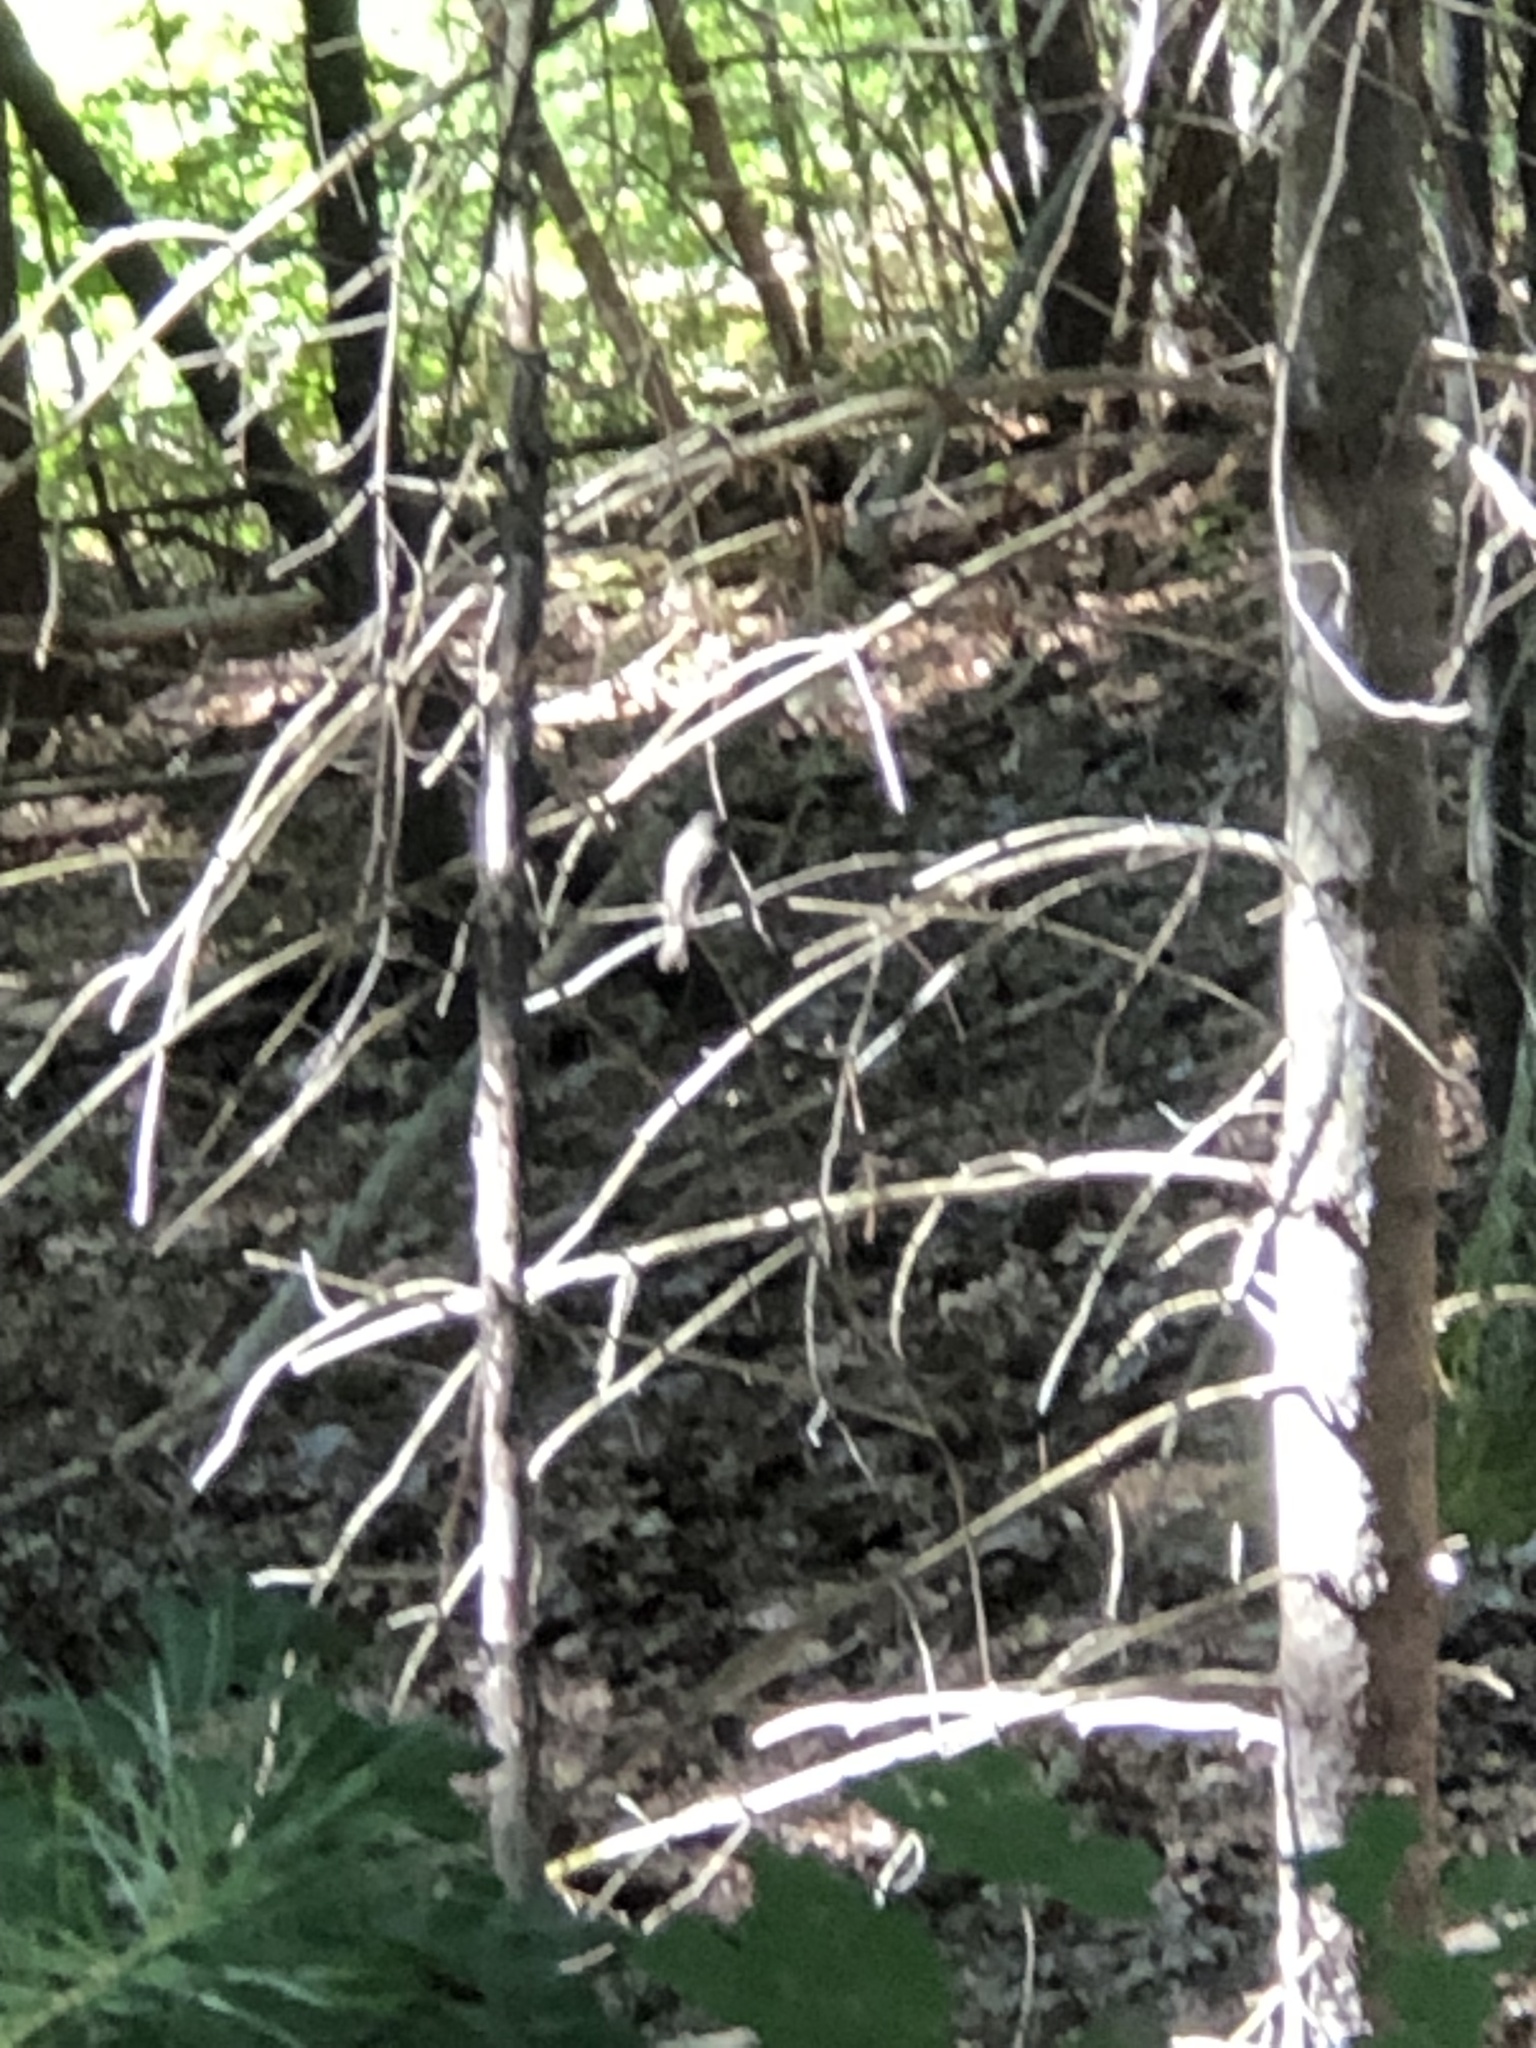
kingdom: Animalia
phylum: Chordata
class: Aves
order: Passeriformes
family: Tyrannidae
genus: Sayornis
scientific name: Sayornis phoebe
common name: Eastern phoebe
